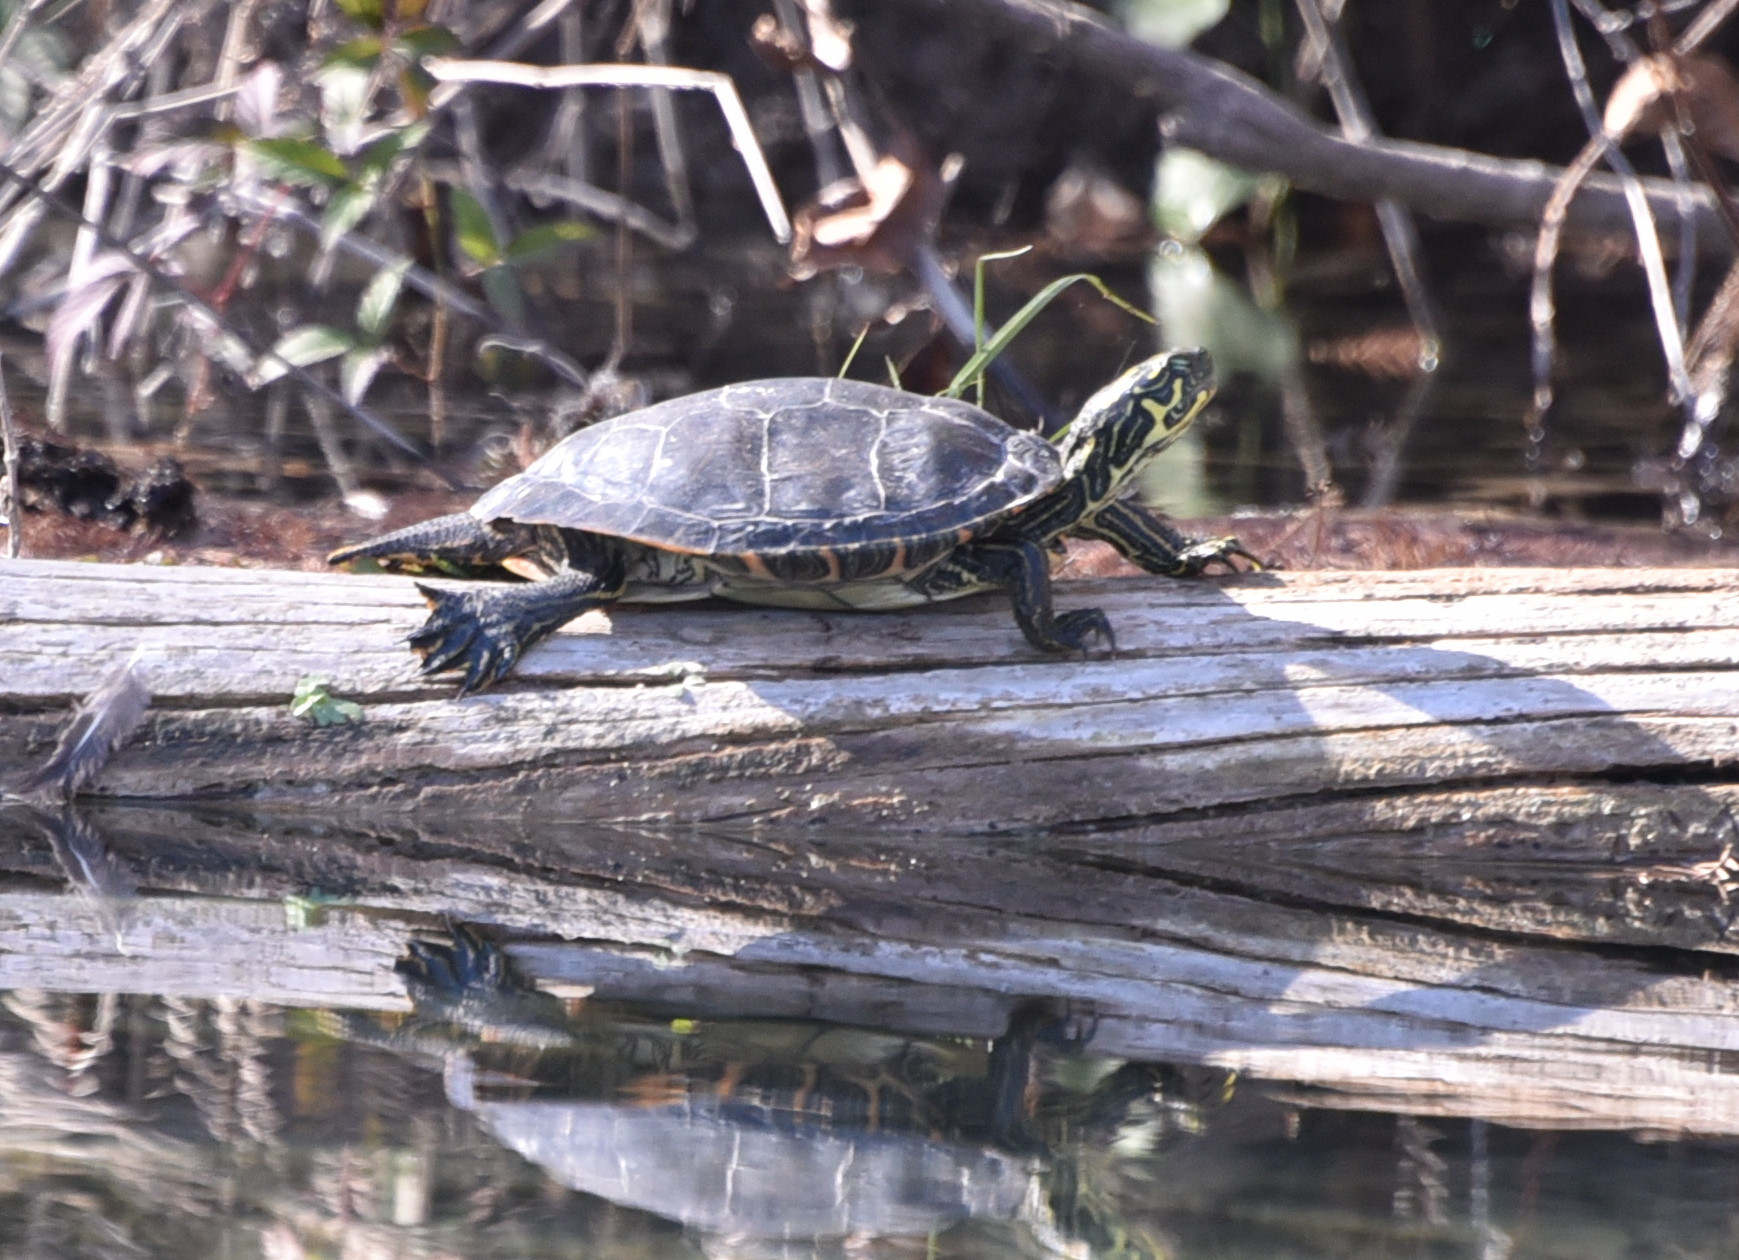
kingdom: Animalia
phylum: Chordata
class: Testudines
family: Emydidae
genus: Pseudemys
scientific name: Pseudemys texana
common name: Texas river cooter
